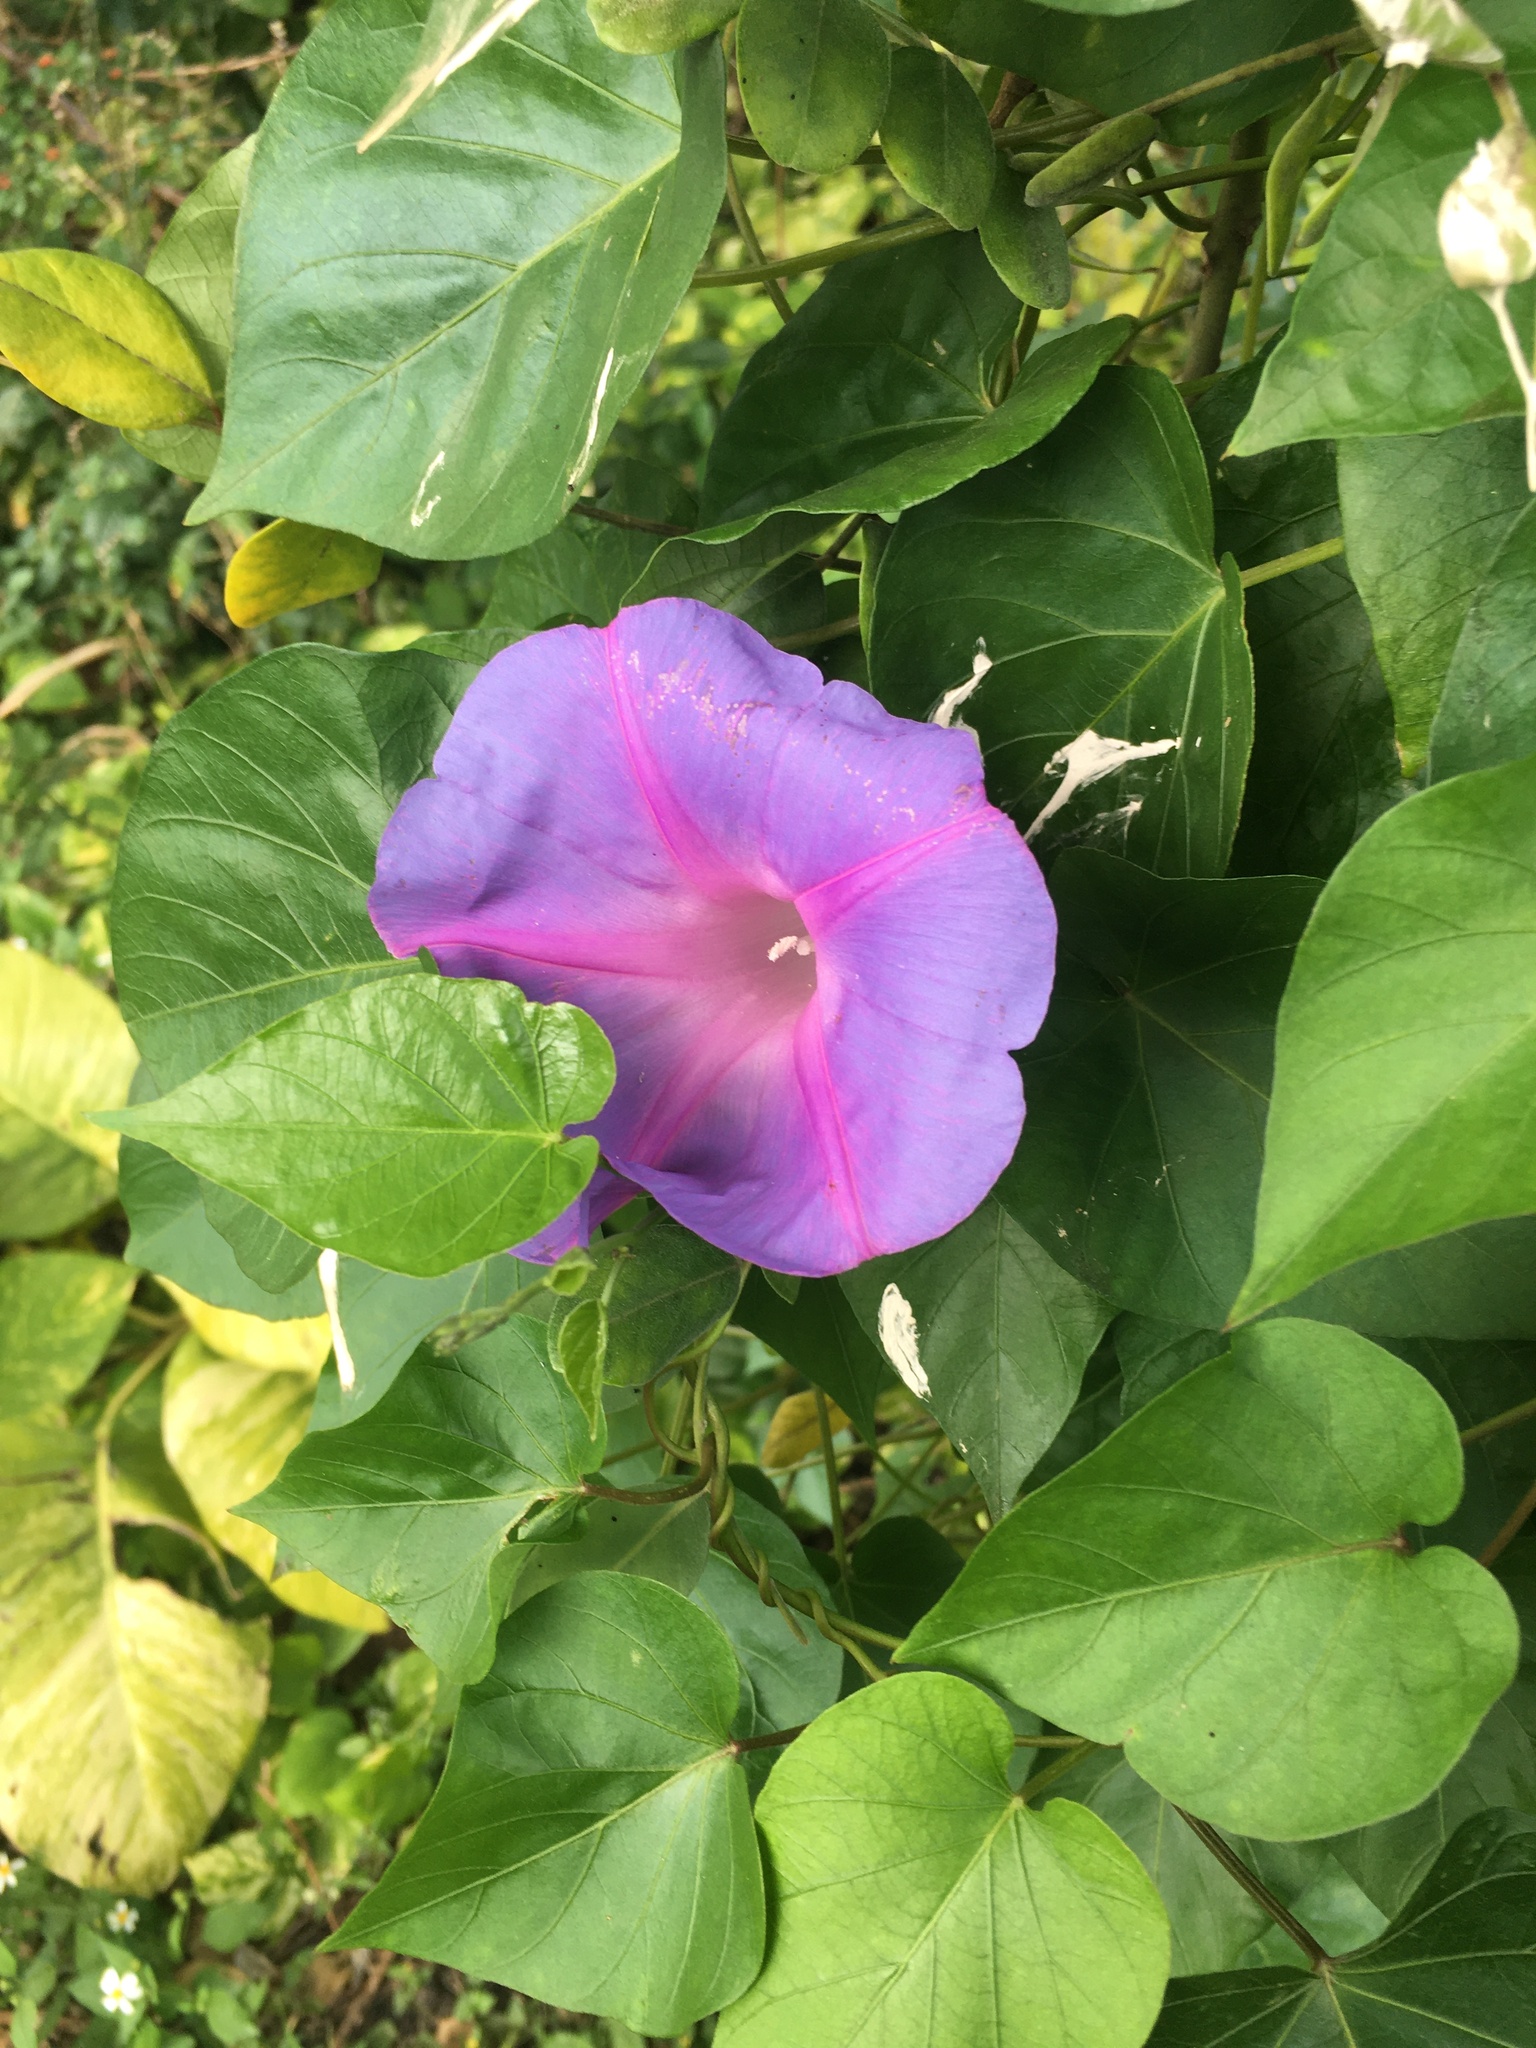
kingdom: Plantae
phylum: Tracheophyta
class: Magnoliopsida
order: Solanales
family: Convolvulaceae
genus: Ipomoea
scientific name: Ipomoea indica
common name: Blue dawnflower
